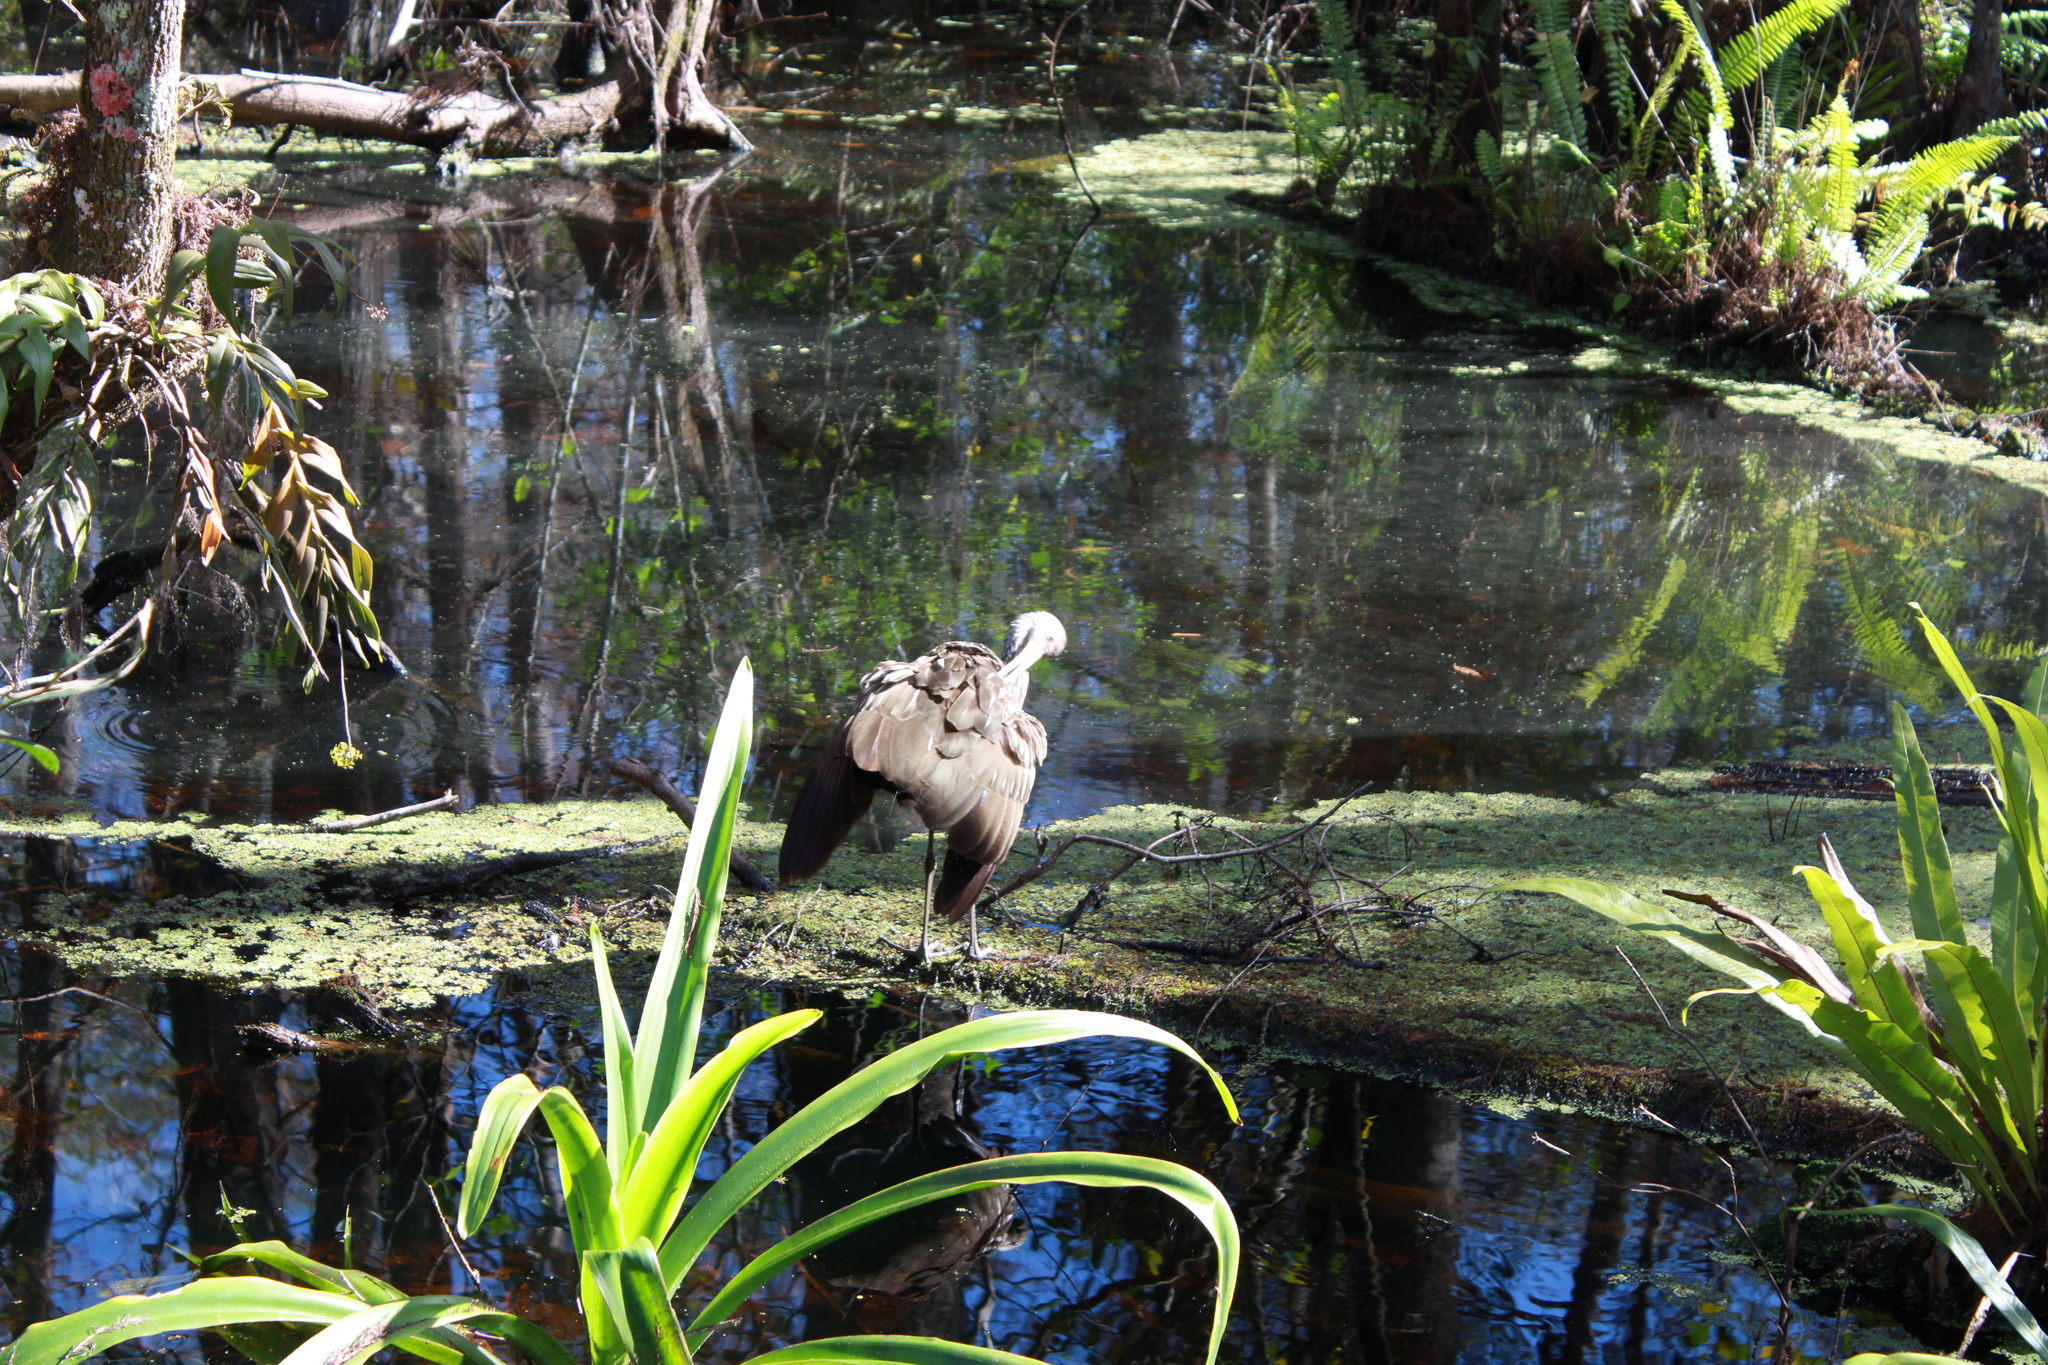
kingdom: Animalia
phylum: Chordata
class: Aves
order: Gruiformes
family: Aramidae
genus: Aramus
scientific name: Aramus guarauna
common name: Limpkin
